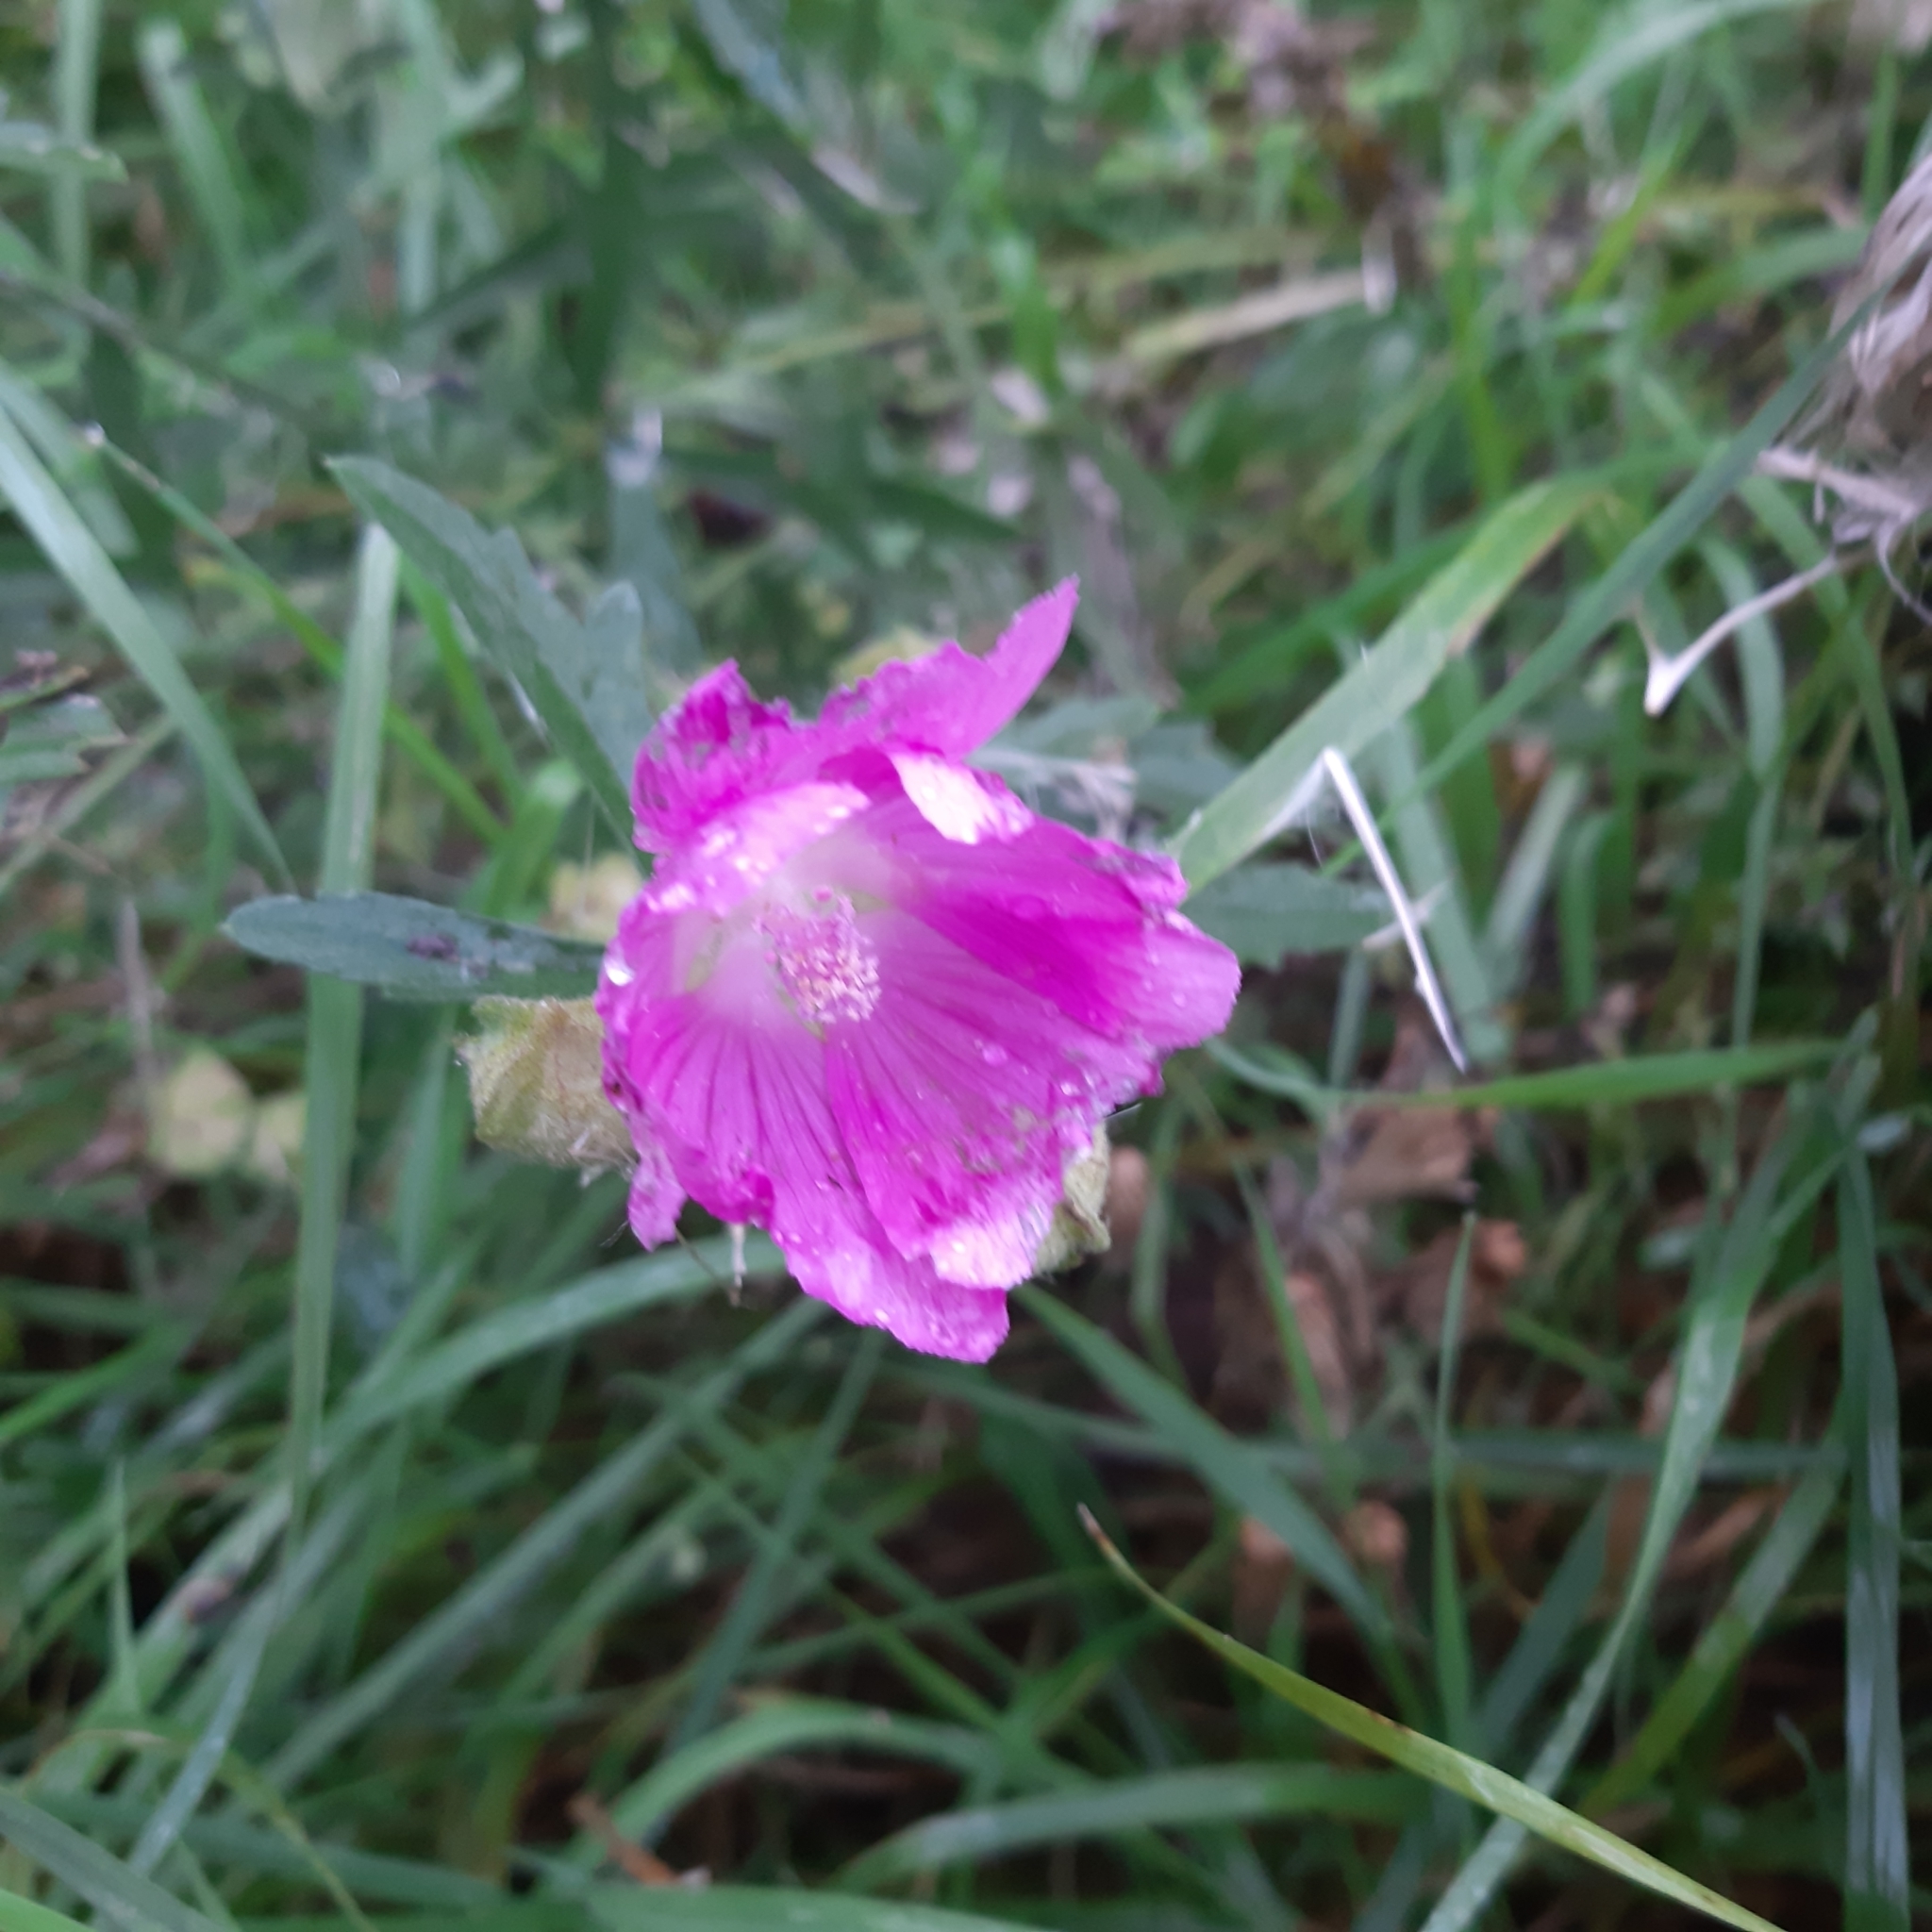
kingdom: Plantae
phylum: Tracheophyta
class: Magnoliopsida
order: Malvales
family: Malvaceae
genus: Malva
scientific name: Malva alcea
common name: Greater musk-mallow
